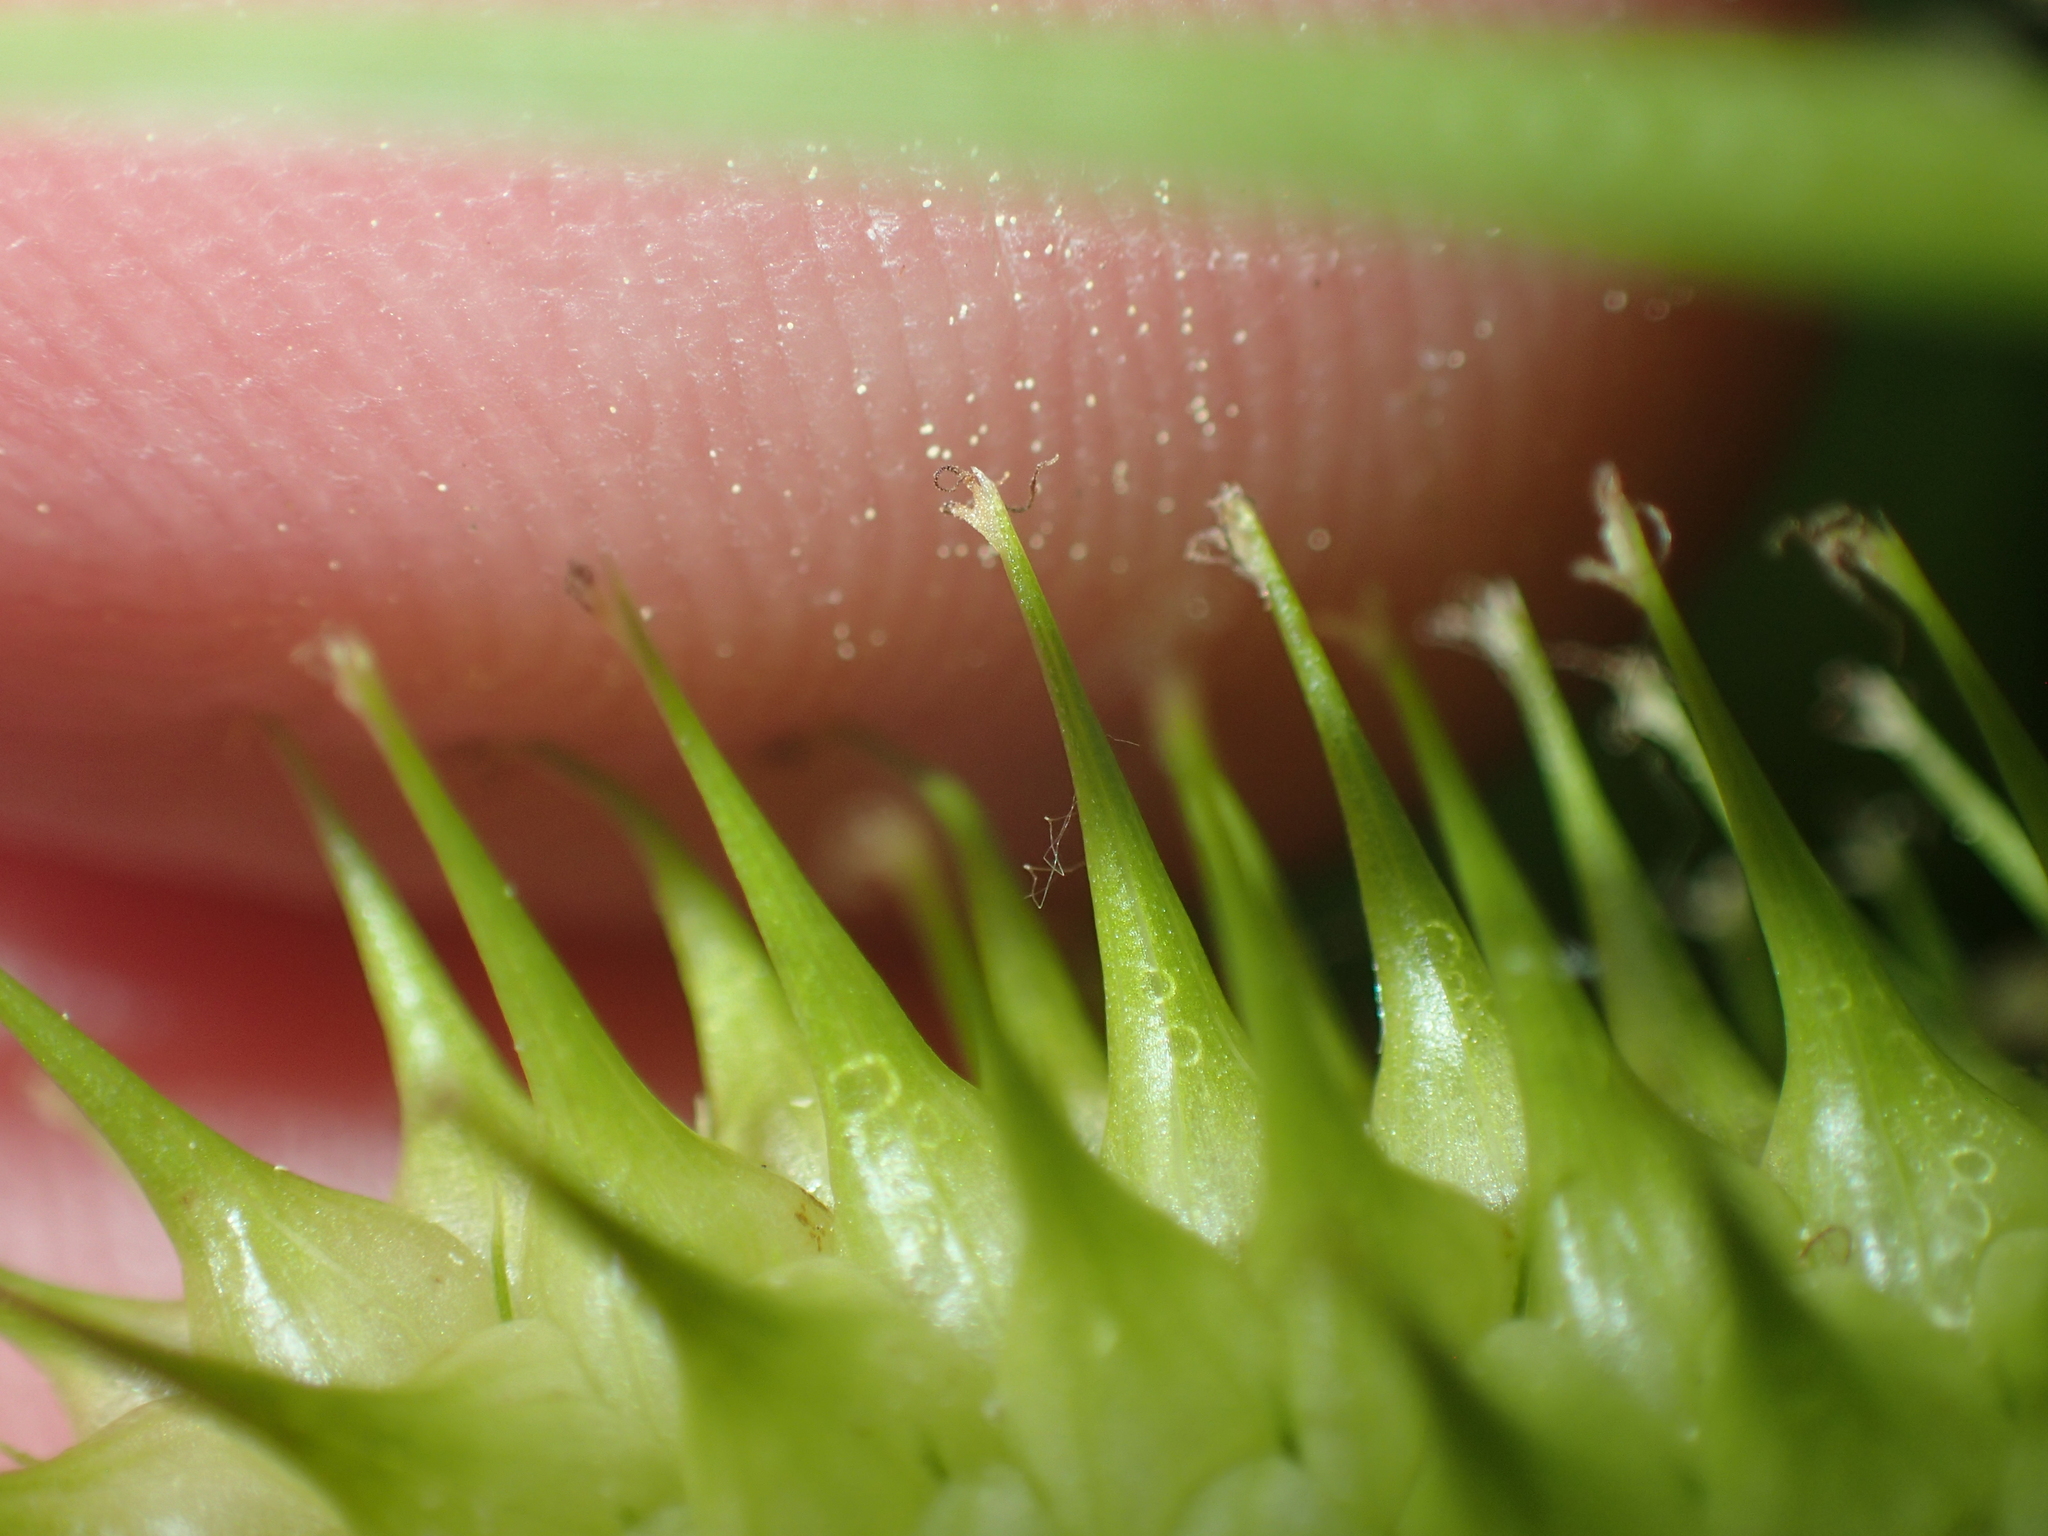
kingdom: Plantae
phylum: Tracheophyta
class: Liliopsida
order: Poales
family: Cyperaceae
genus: Carex
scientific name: Carex lurida
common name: Sallow sedge
